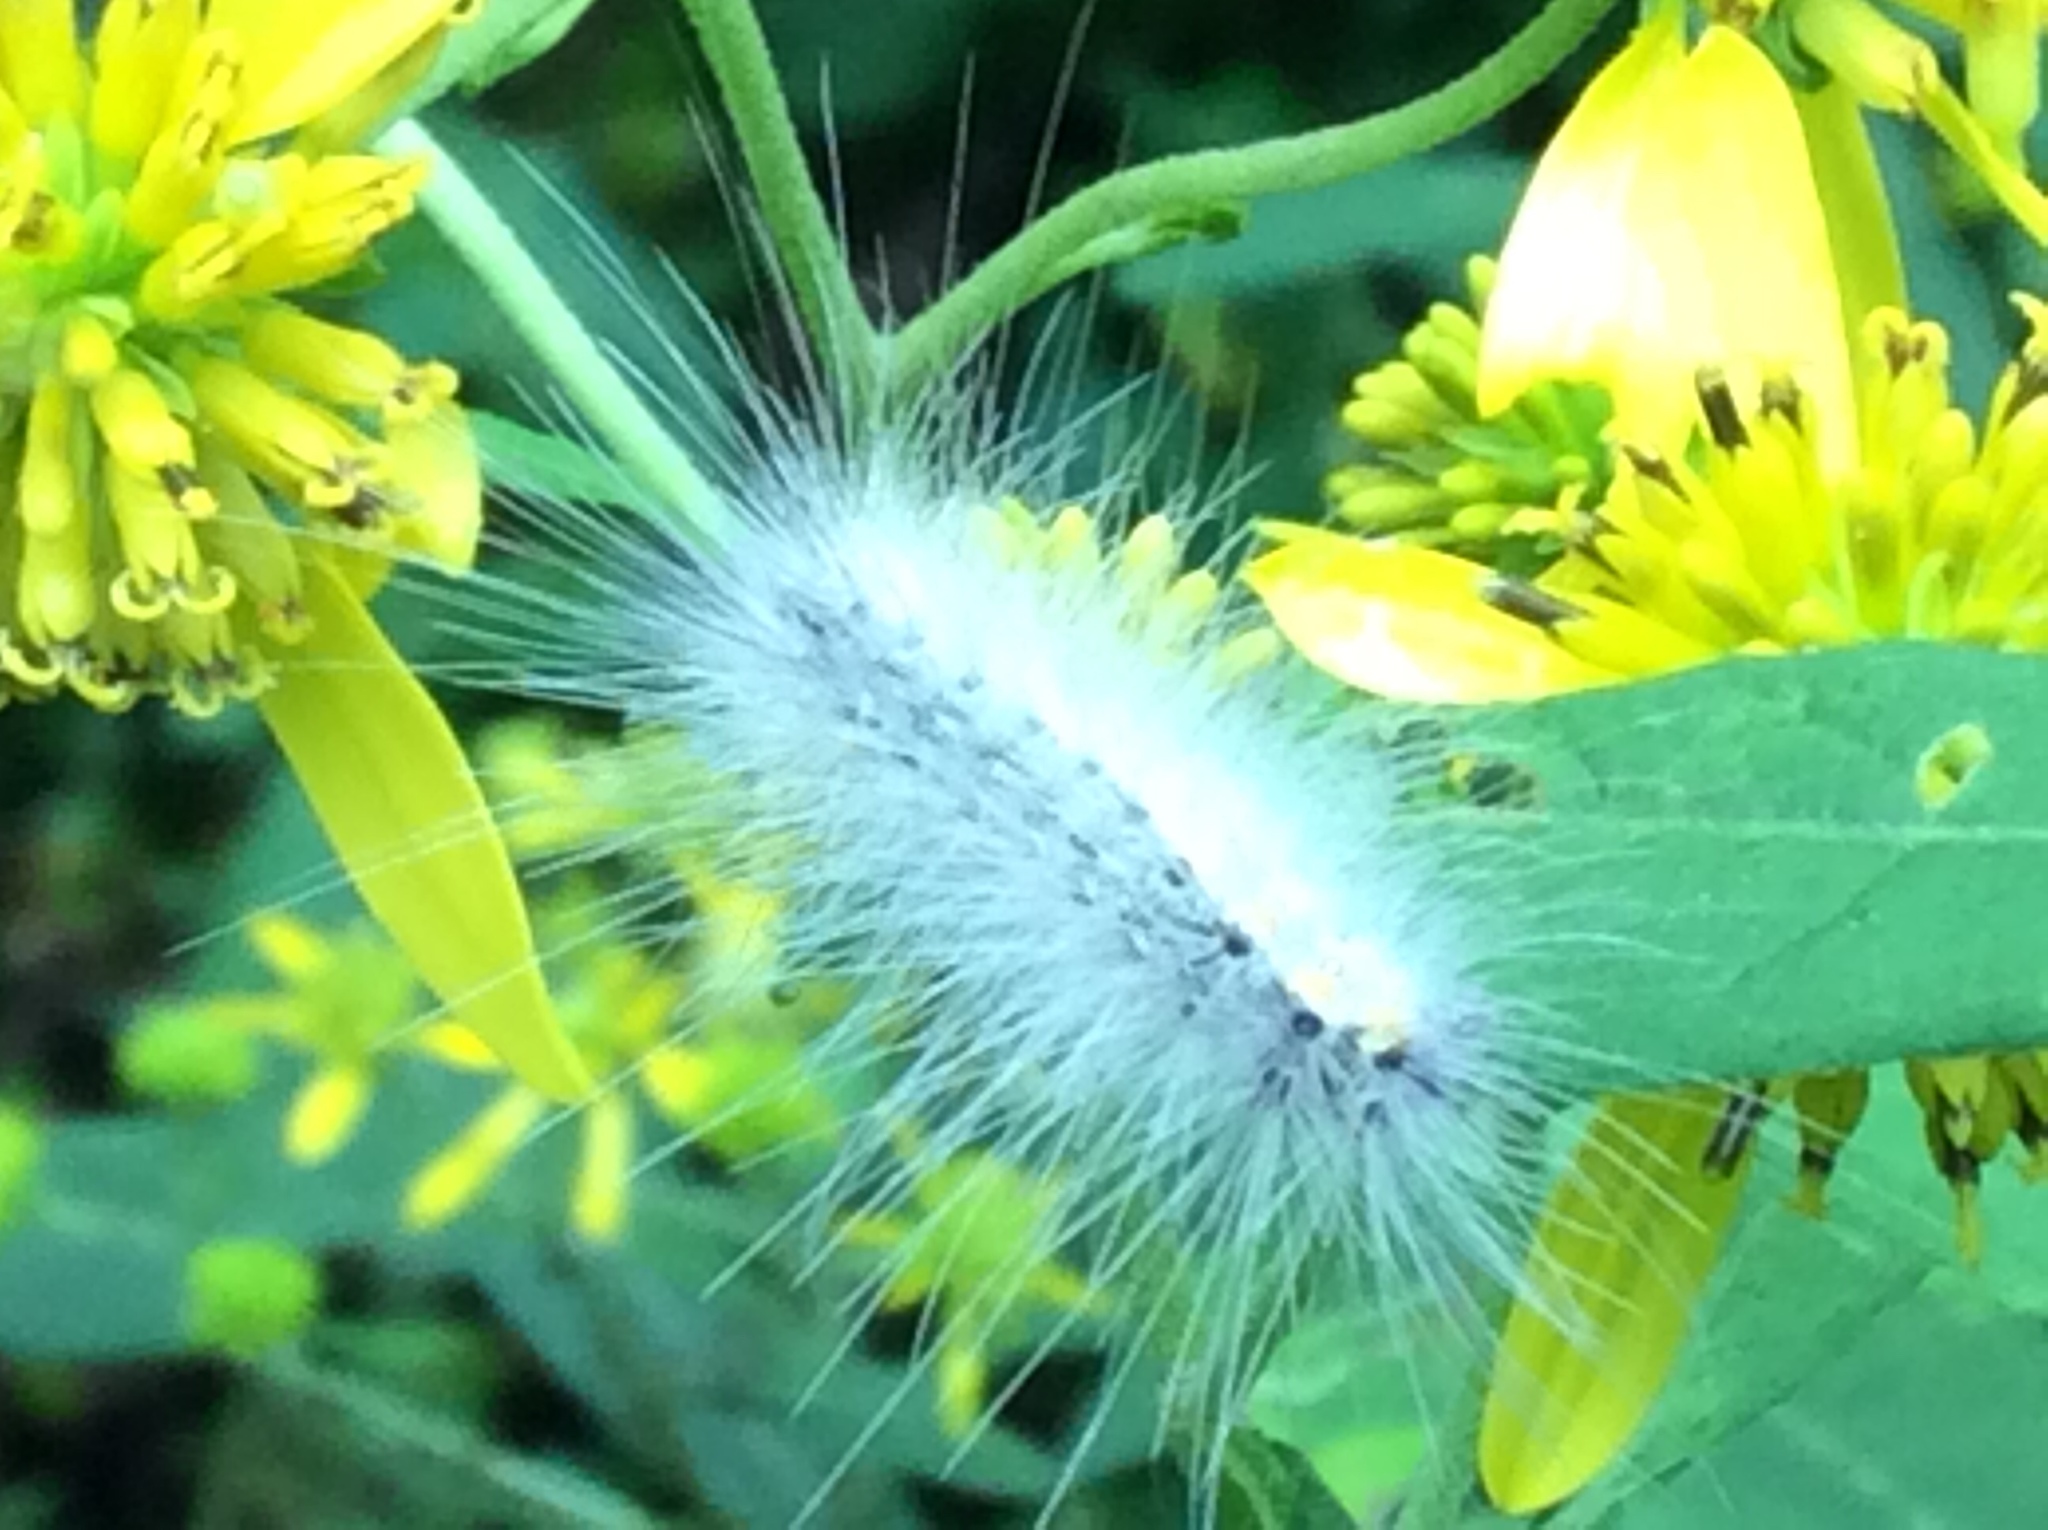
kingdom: Animalia
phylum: Arthropoda
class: Insecta
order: Lepidoptera
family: Erebidae
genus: Hyphantria
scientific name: Hyphantria cunea
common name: American white moth
